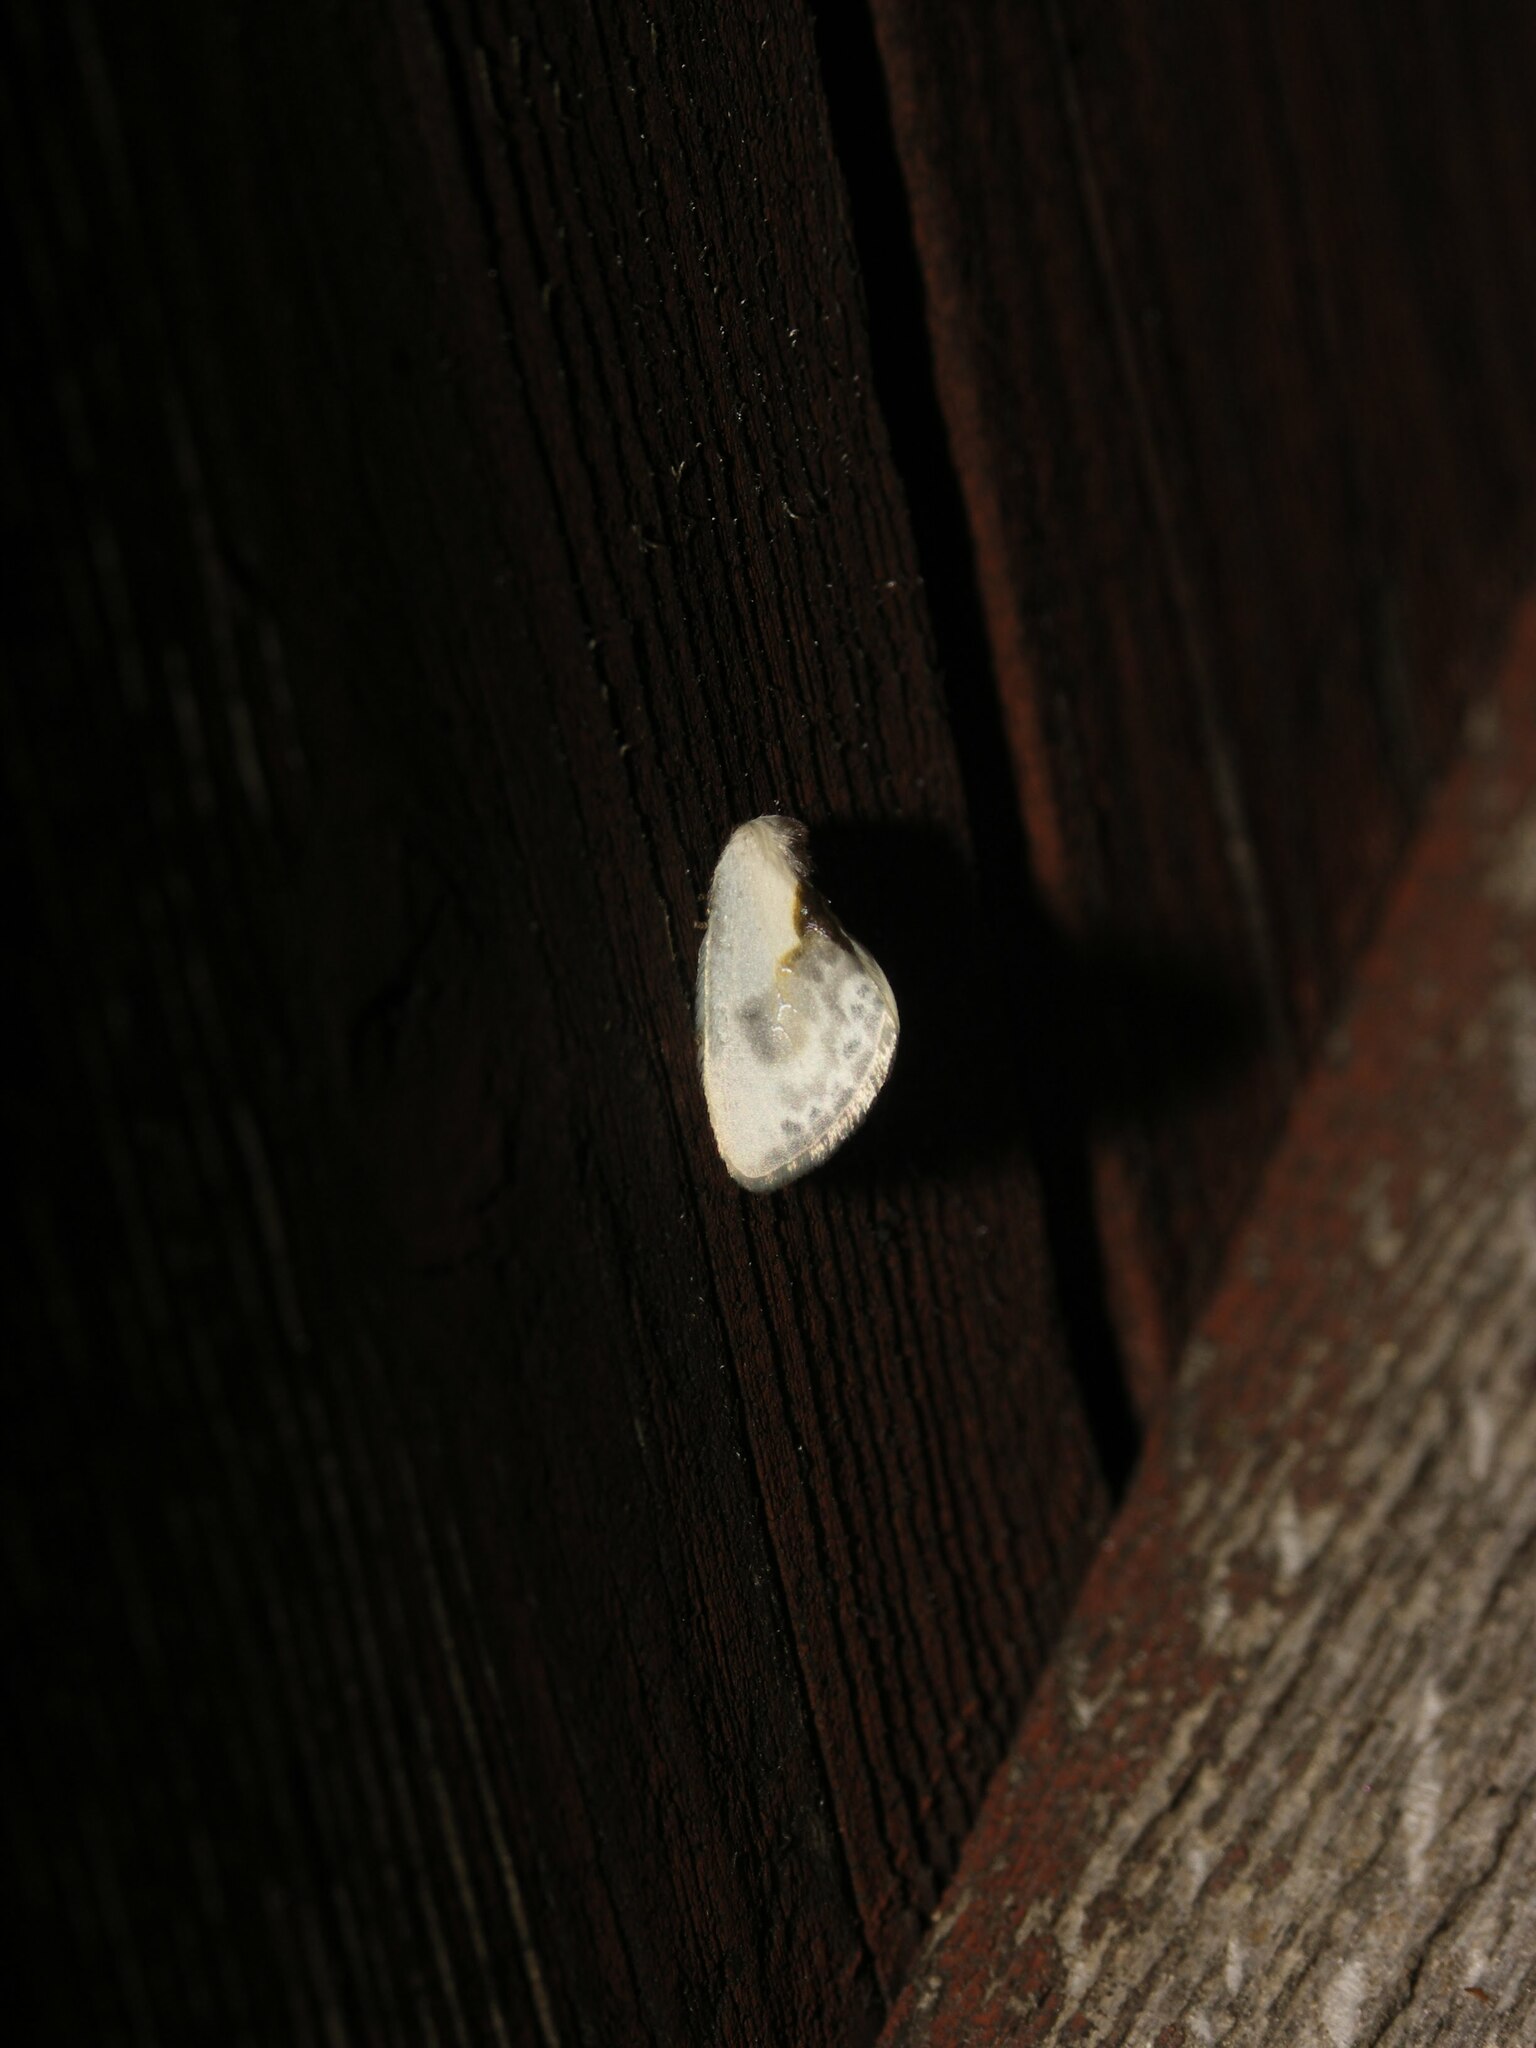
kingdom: Animalia
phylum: Arthropoda
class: Insecta
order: Lepidoptera
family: Drepanidae
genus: Cilix
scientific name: Cilix glaucata
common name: Chinese character
